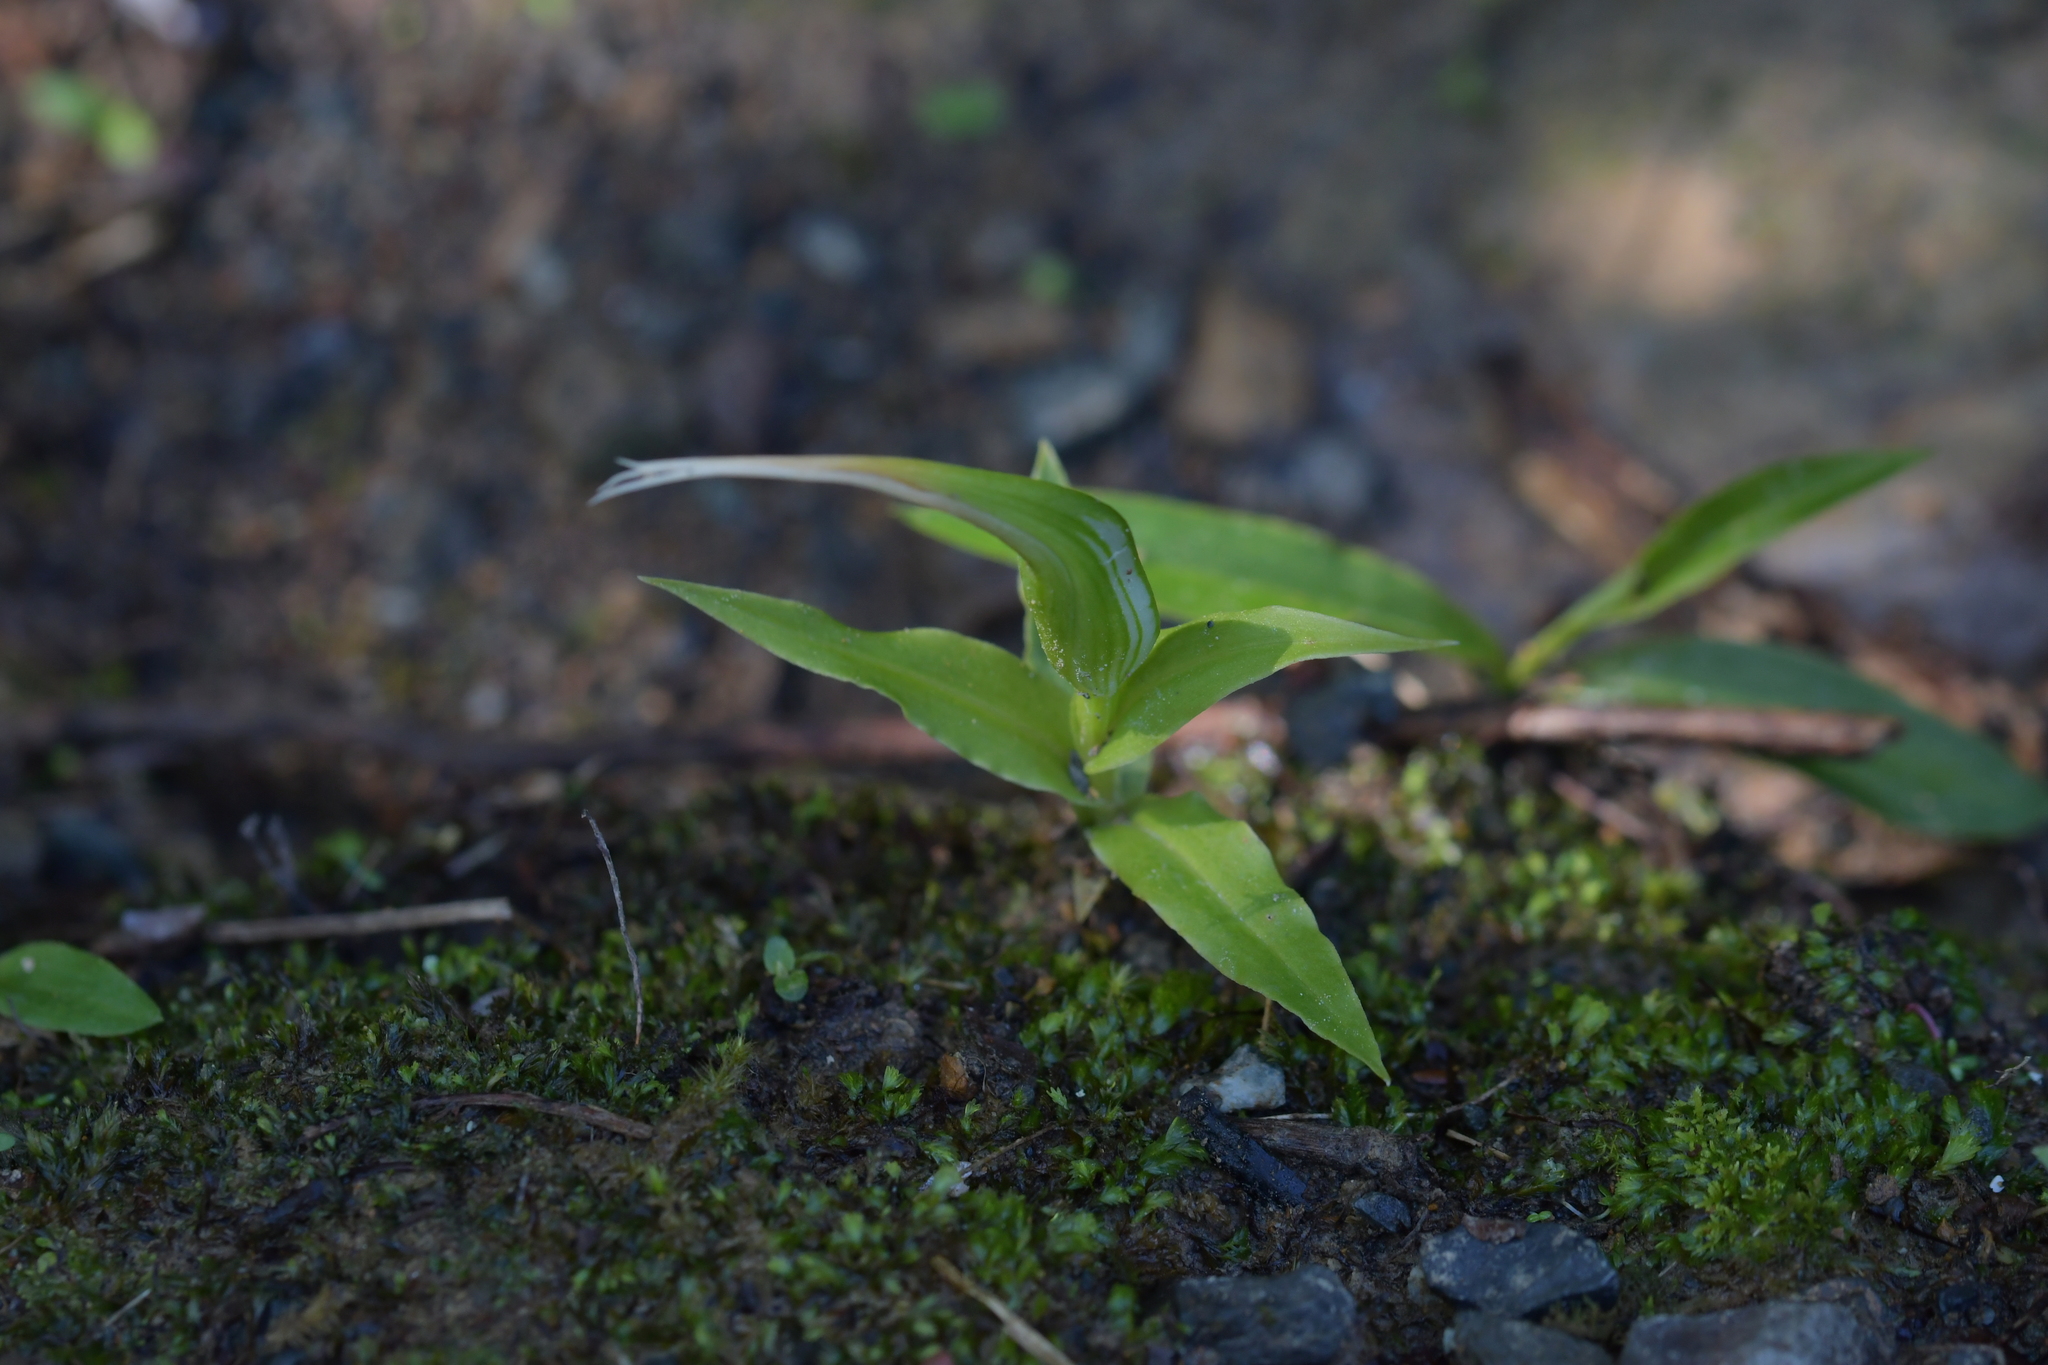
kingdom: Plantae
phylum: Tracheophyta
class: Liliopsida
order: Asparagales
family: Orchidaceae
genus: Pterostylis
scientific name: Pterostylis banksii
